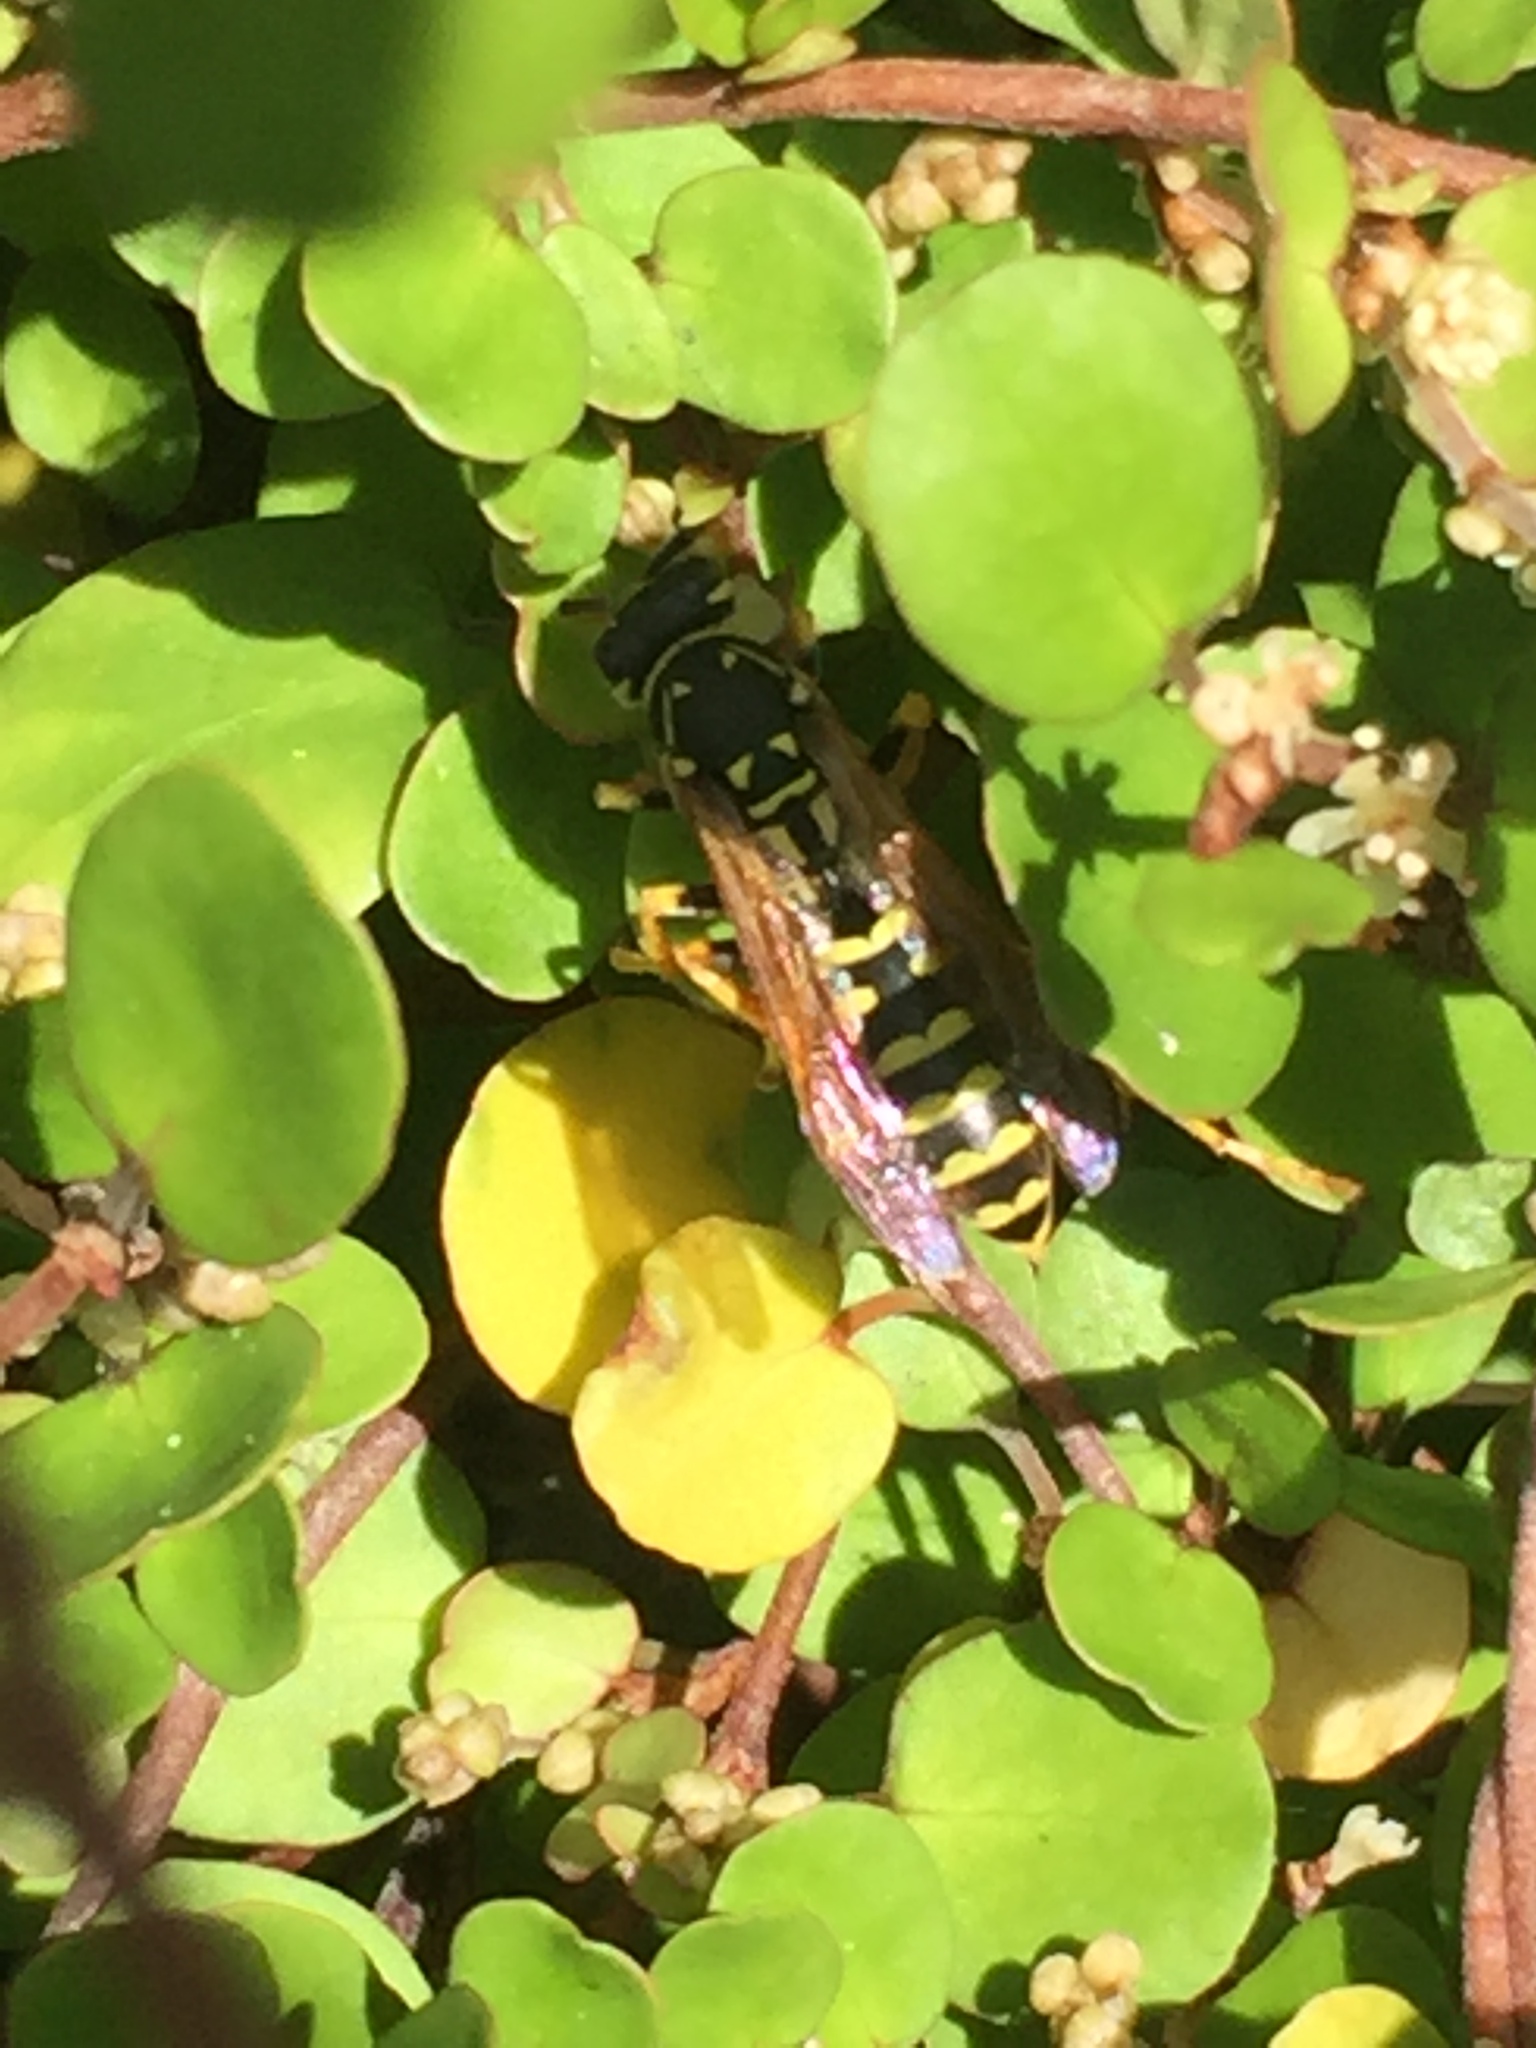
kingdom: Animalia
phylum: Arthropoda
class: Insecta
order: Hymenoptera
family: Eumenidae
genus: Polistes
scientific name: Polistes dominula
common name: Paper wasp
